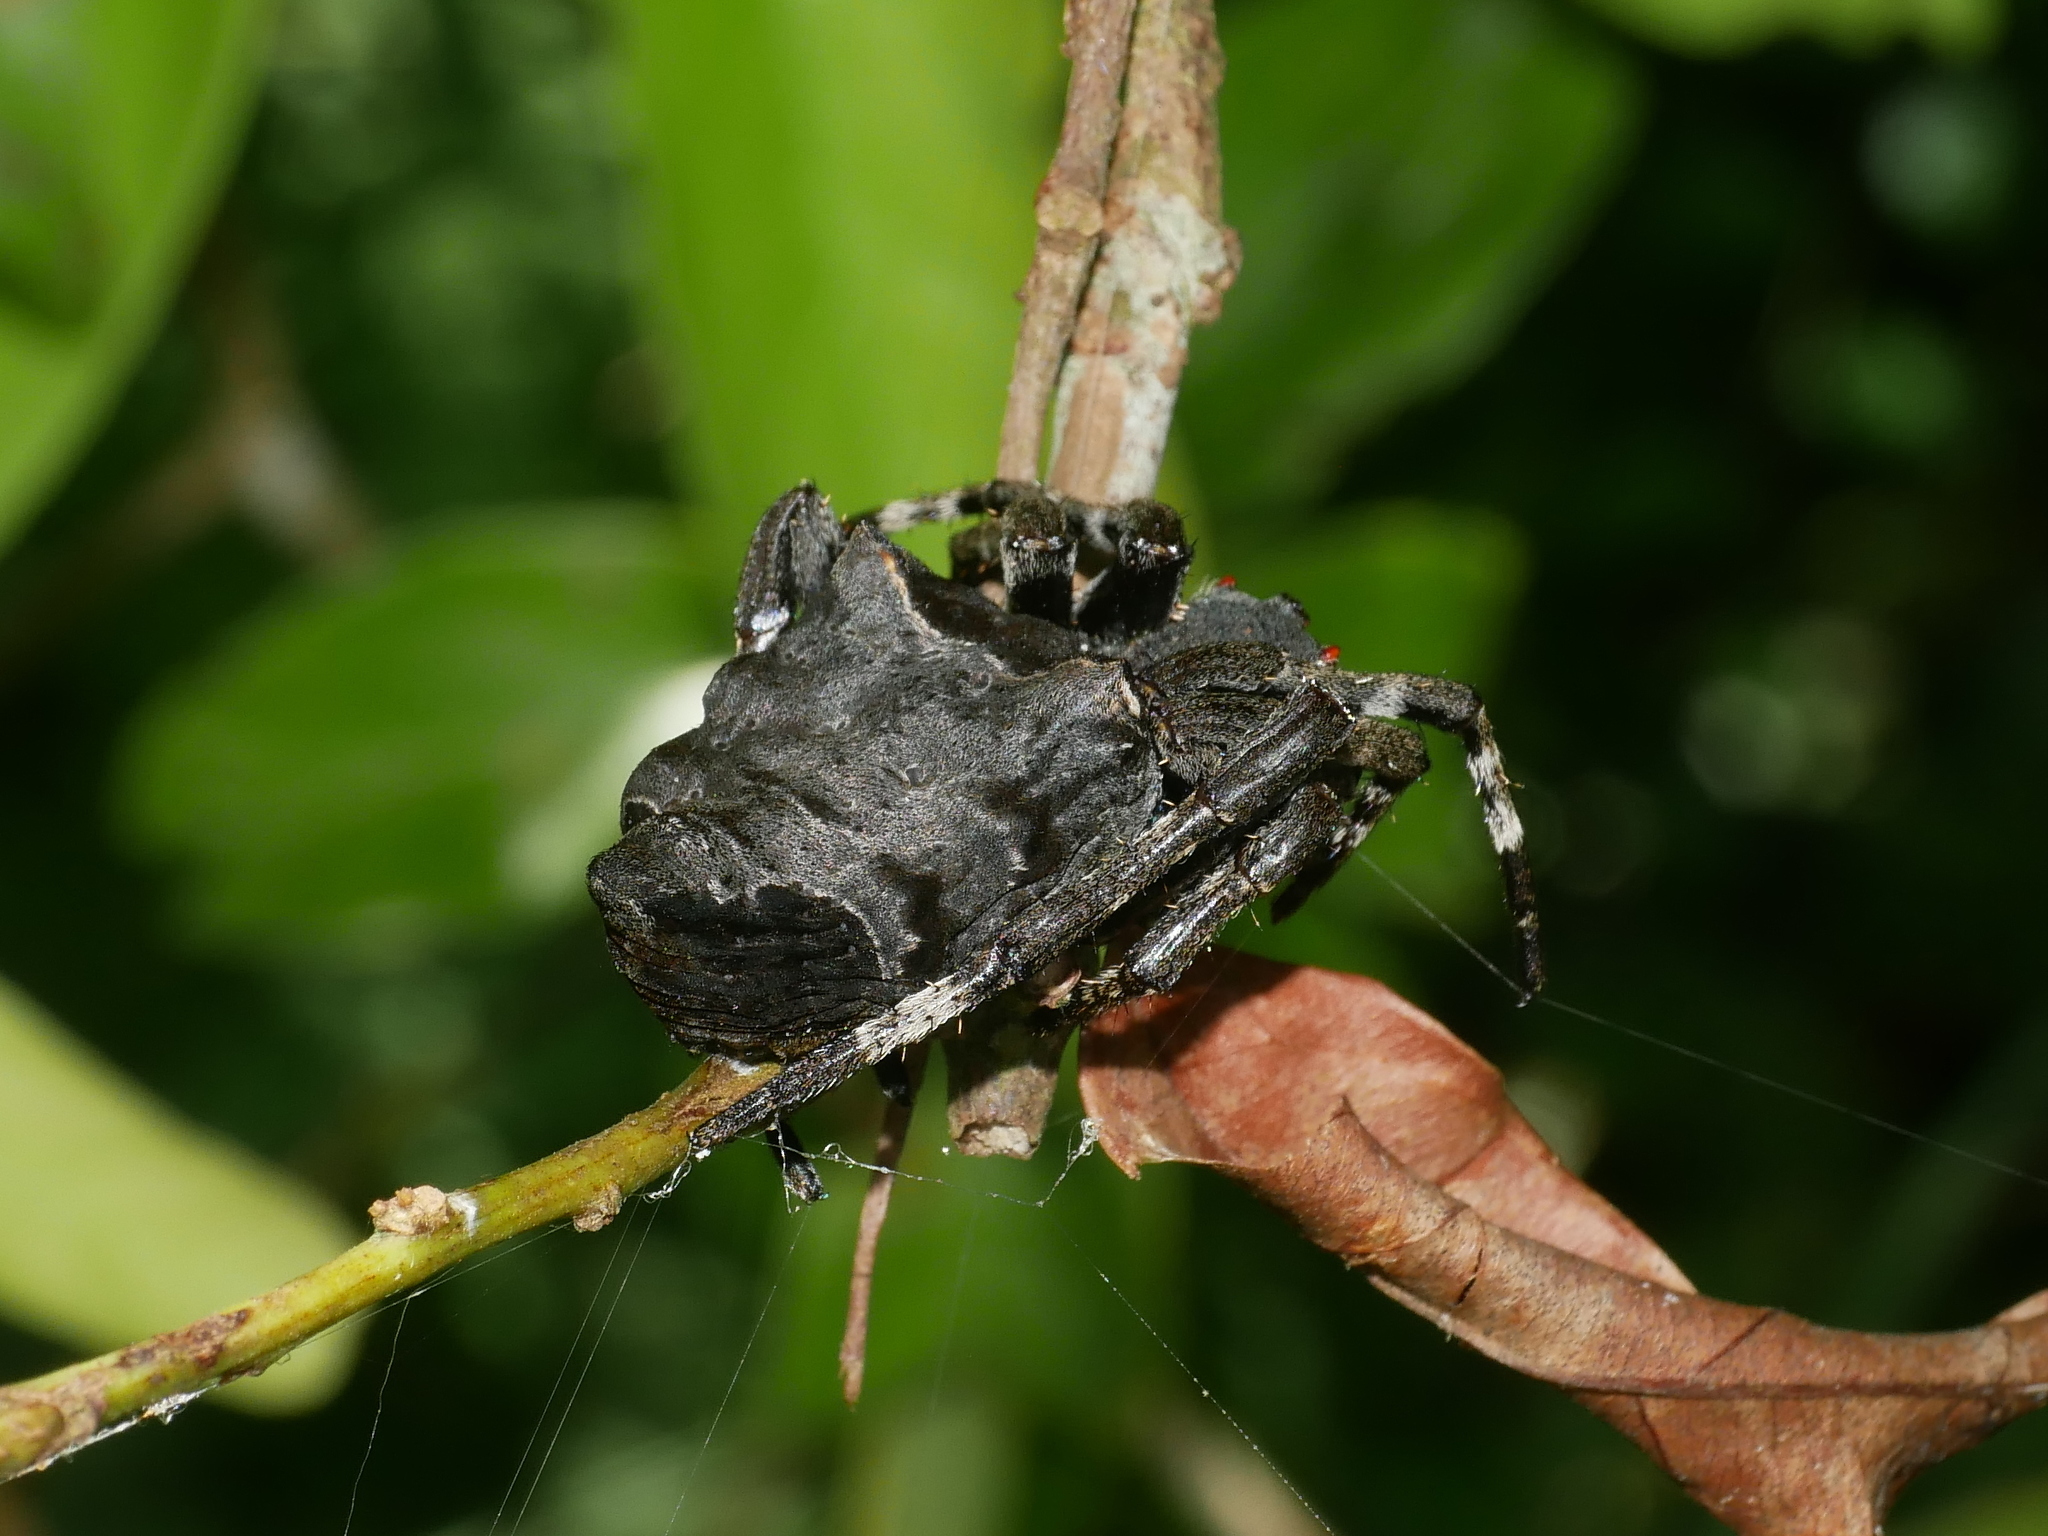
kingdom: Animalia
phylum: Arthropoda
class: Arachnida
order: Araneae
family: Araneidae
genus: Parawixia
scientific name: Parawixia dehaani
